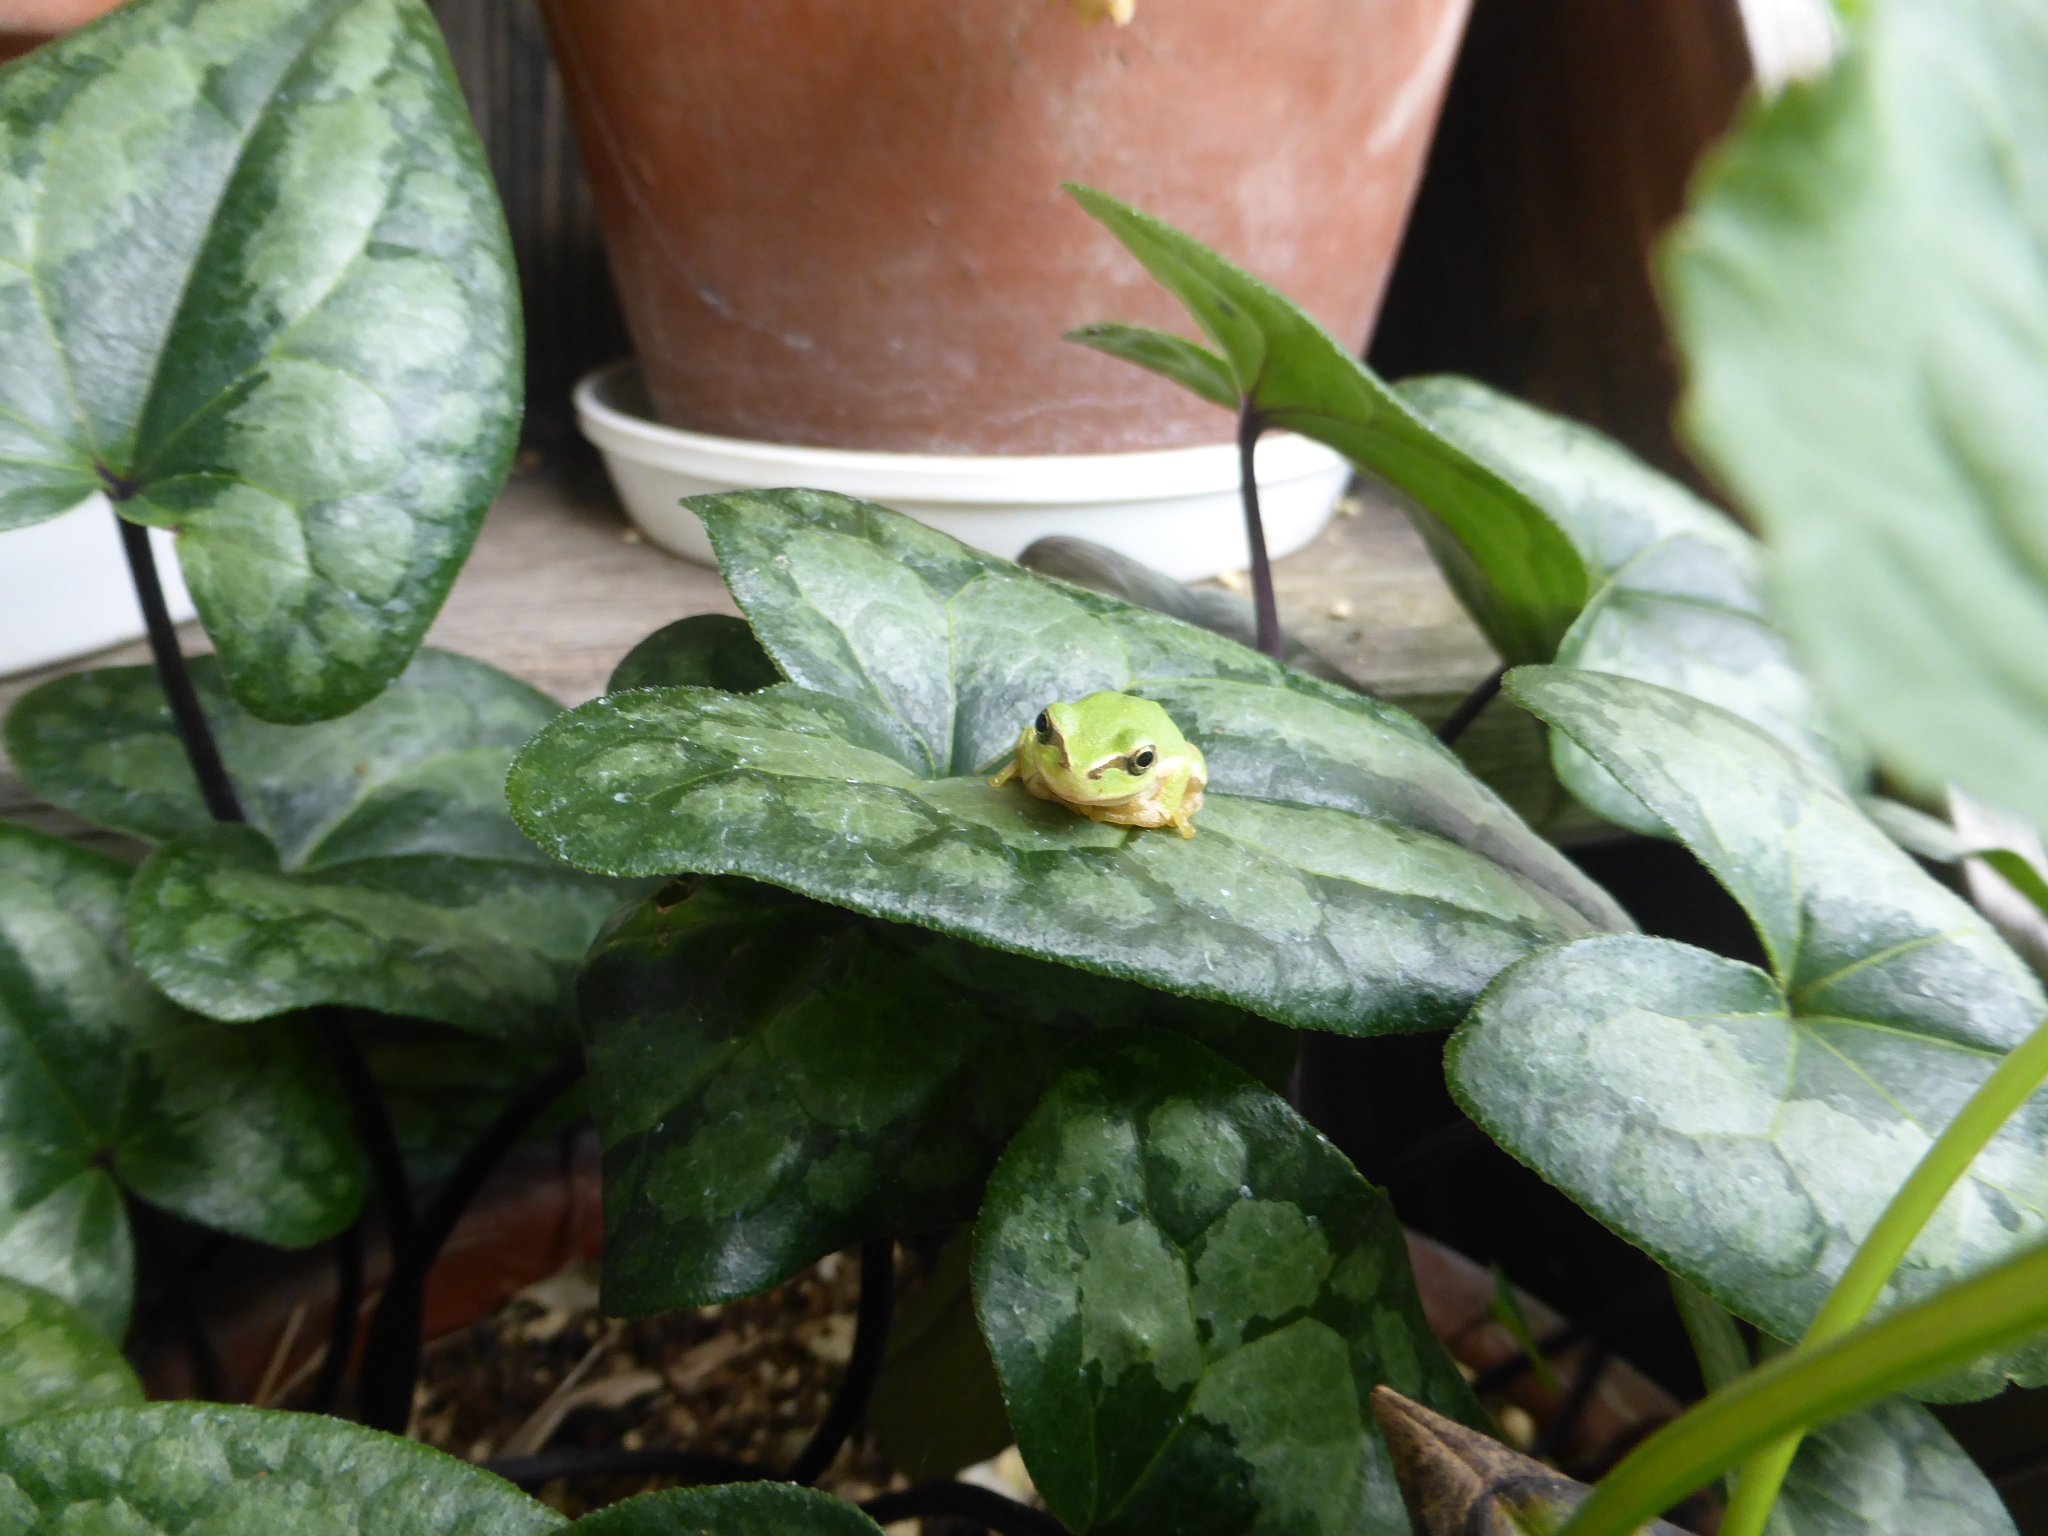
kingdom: Animalia
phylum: Chordata
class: Amphibia
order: Anura
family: Hylidae
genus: Dryophytes
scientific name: Dryophytes japonicus
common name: Japanese treefrog
